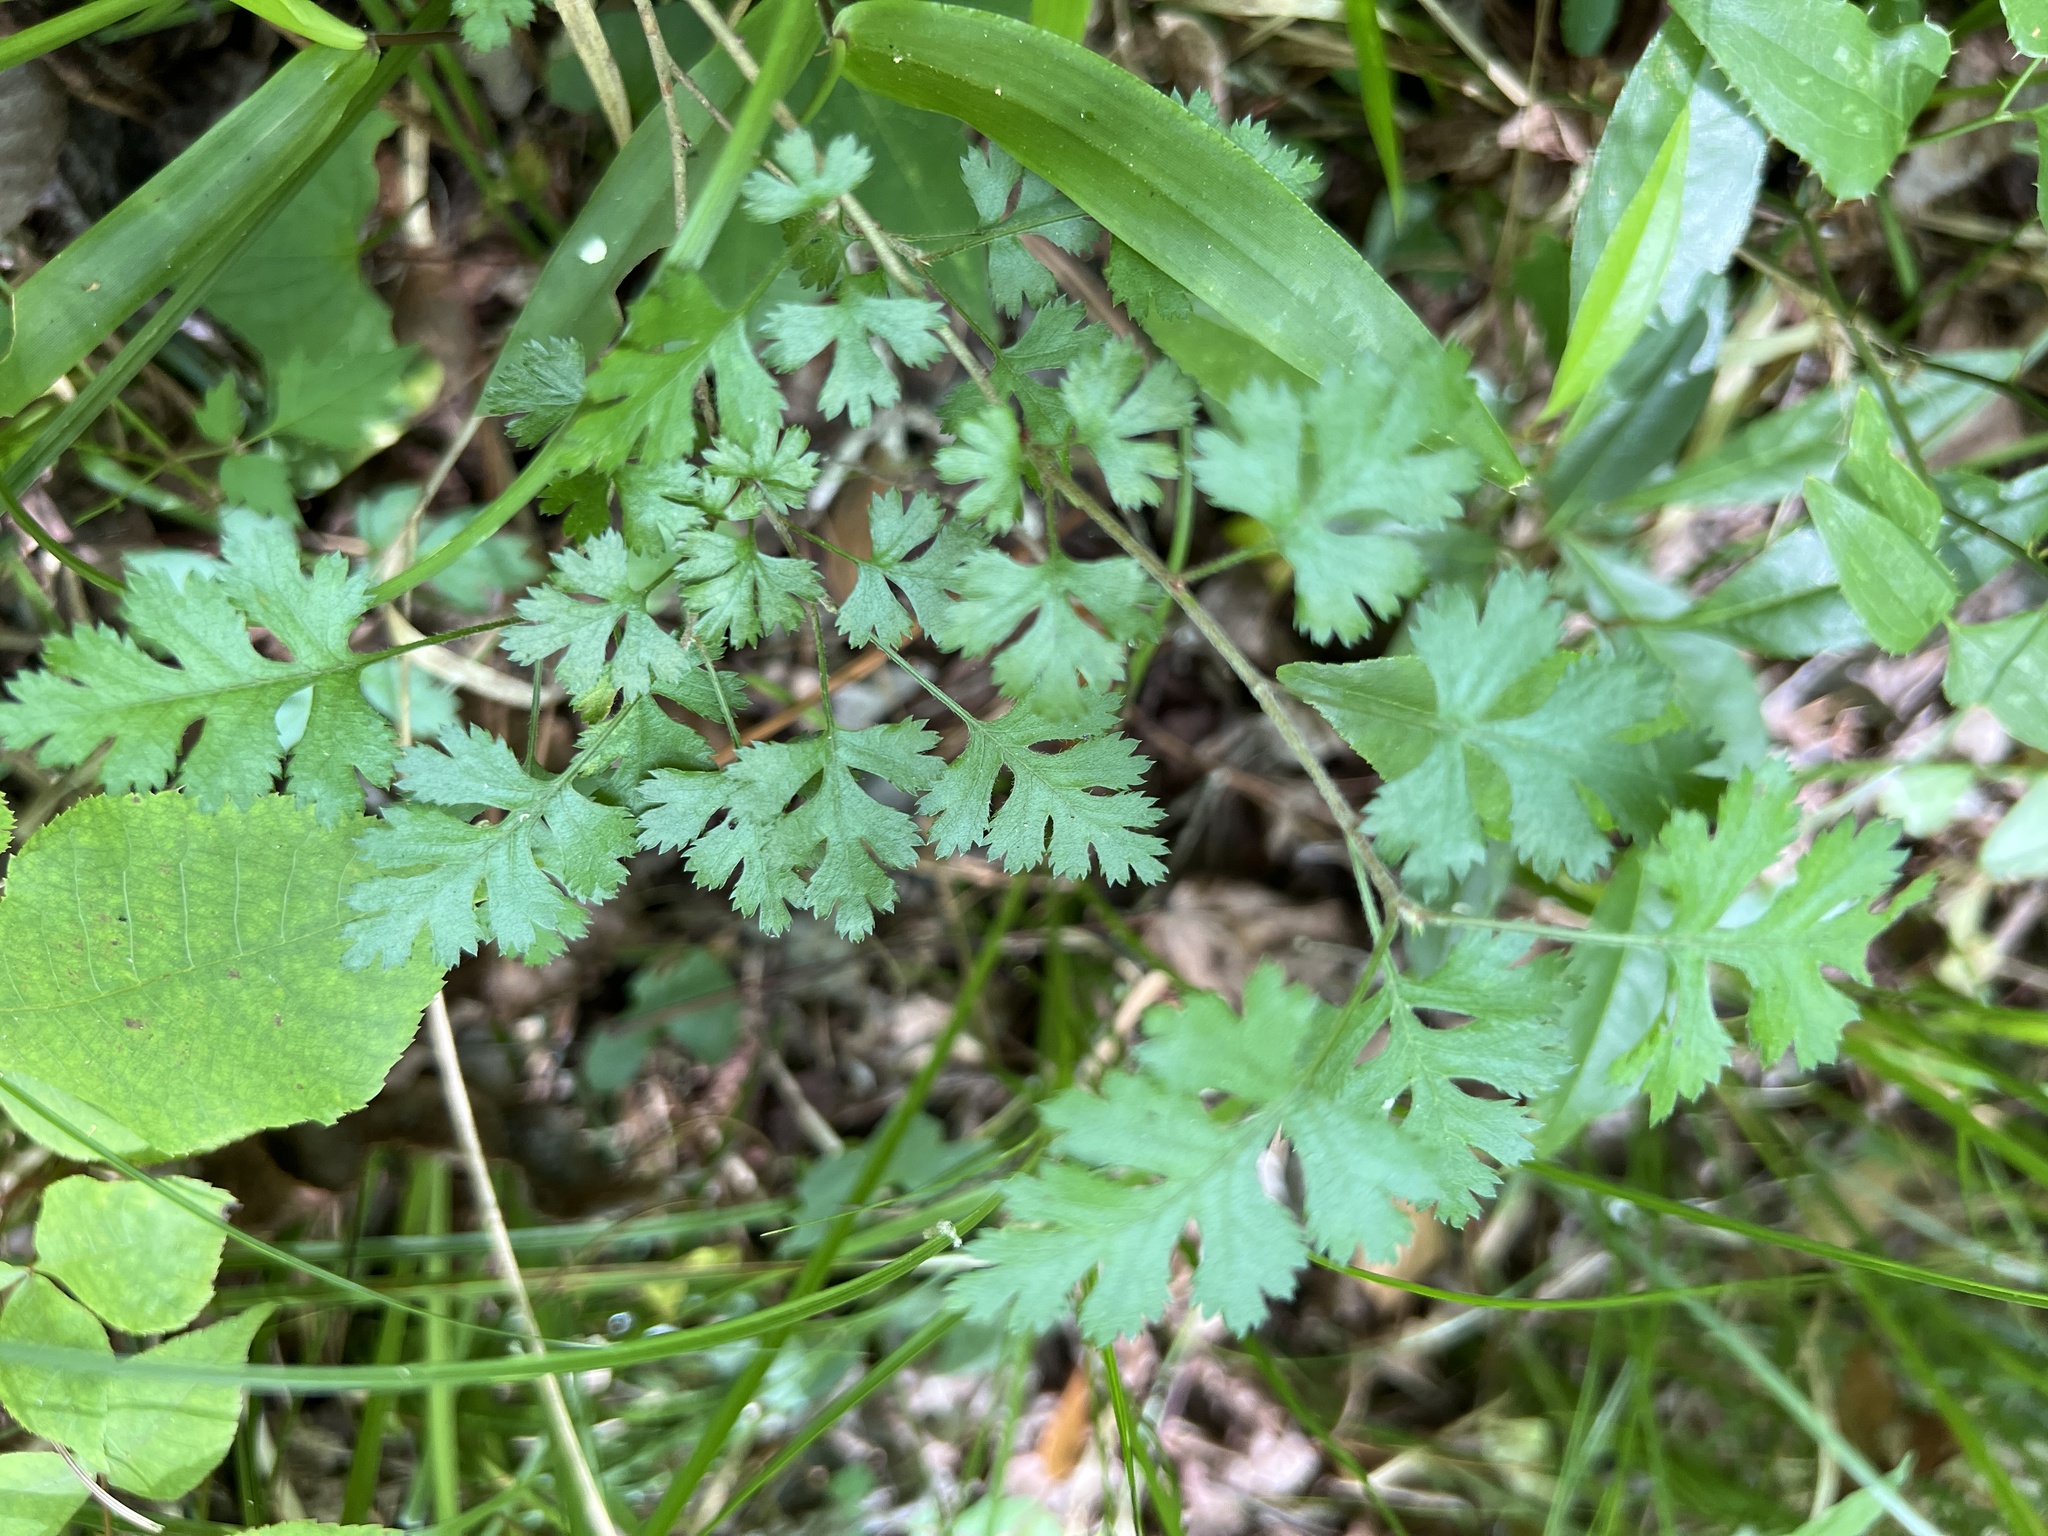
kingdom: Plantae
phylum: Tracheophyta
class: Magnoliopsida
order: Rosales
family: Rosaceae
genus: Crataegus
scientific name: Crataegus marshallii
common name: Parsley-hawthorn
